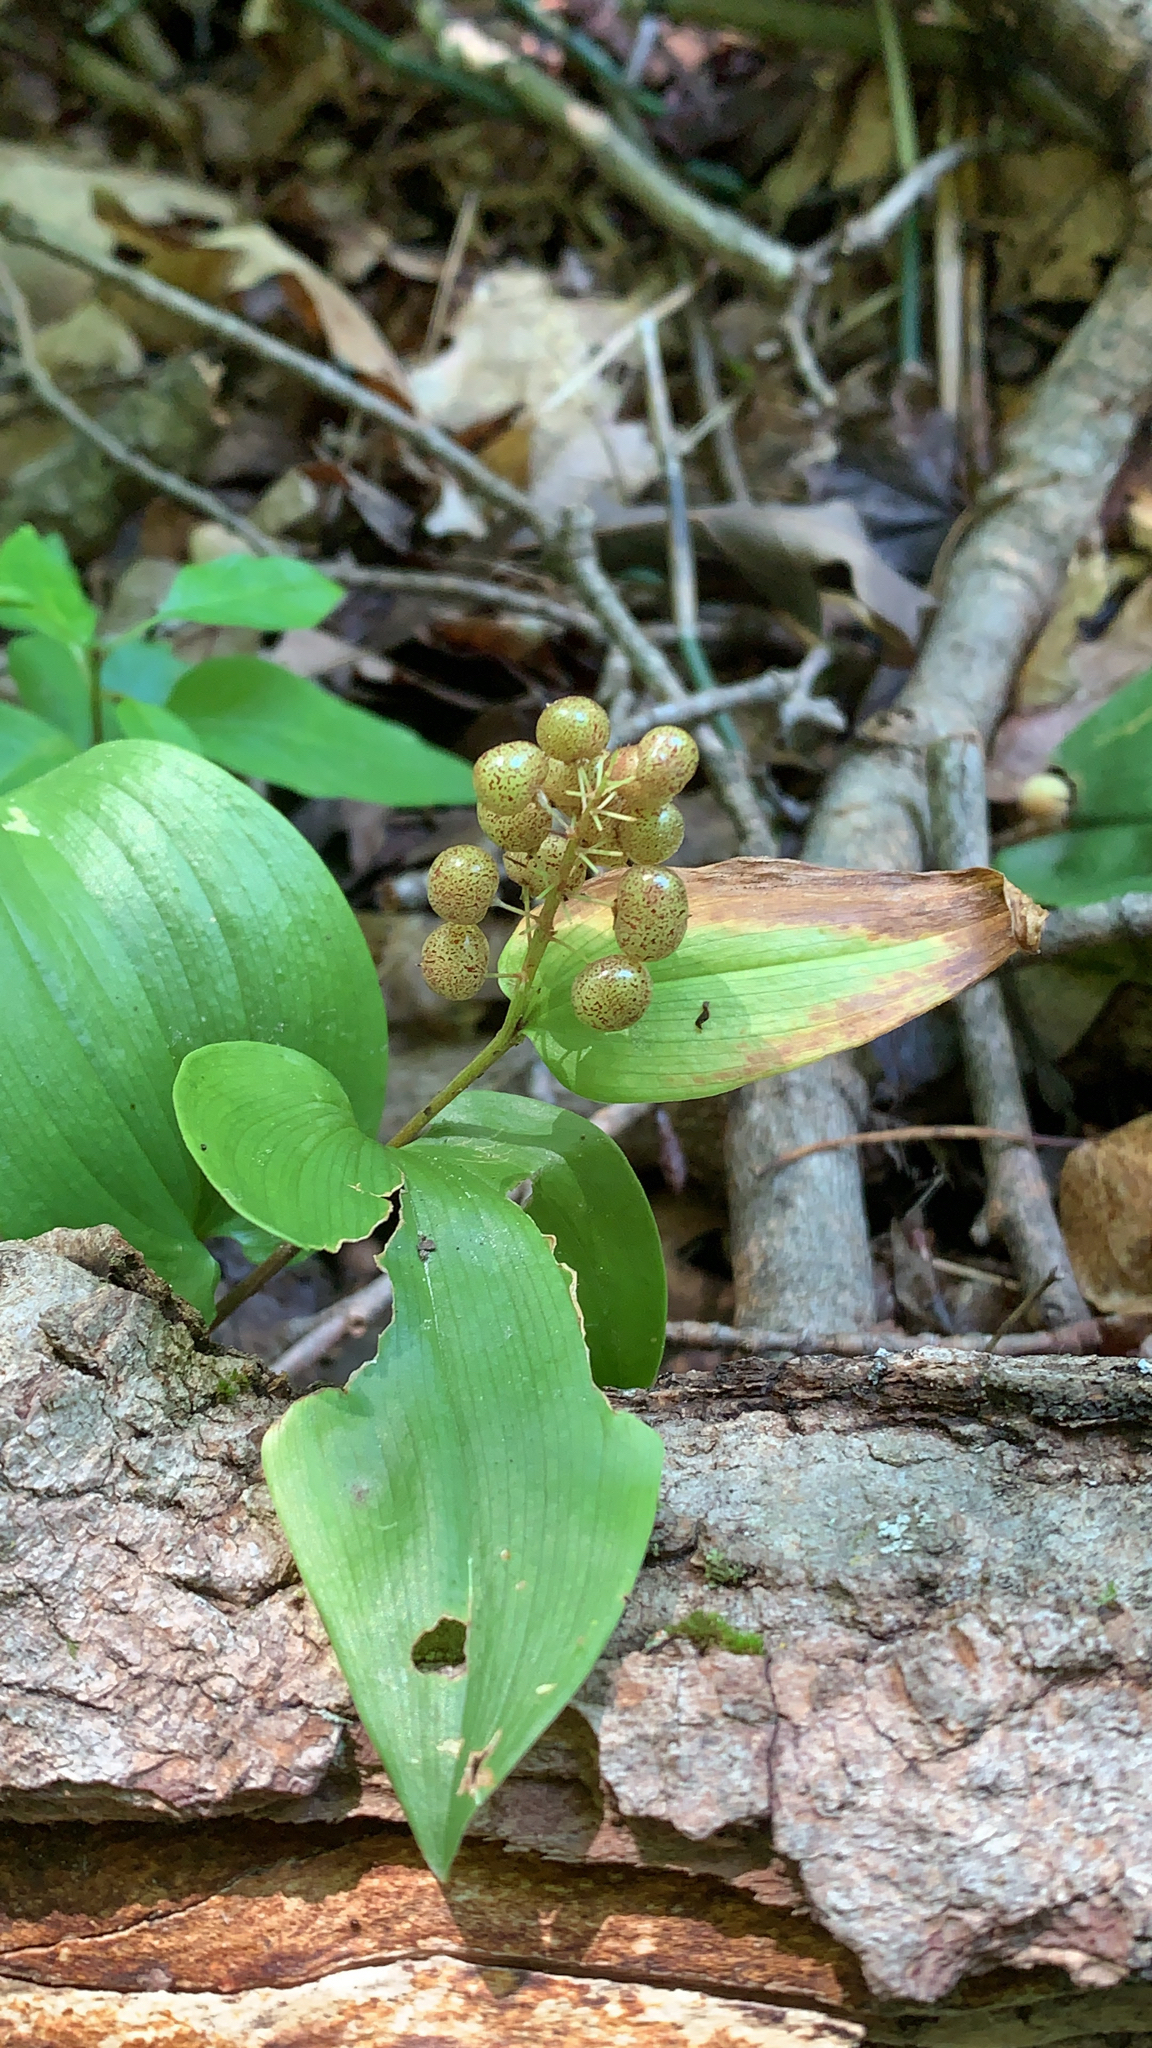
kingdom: Plantae
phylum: Tracheophyta
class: Liliopsida
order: Asparagales
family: Asparagaceae
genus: Maianthemum
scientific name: Maianthemum canadense
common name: False lily-of-the-valley
